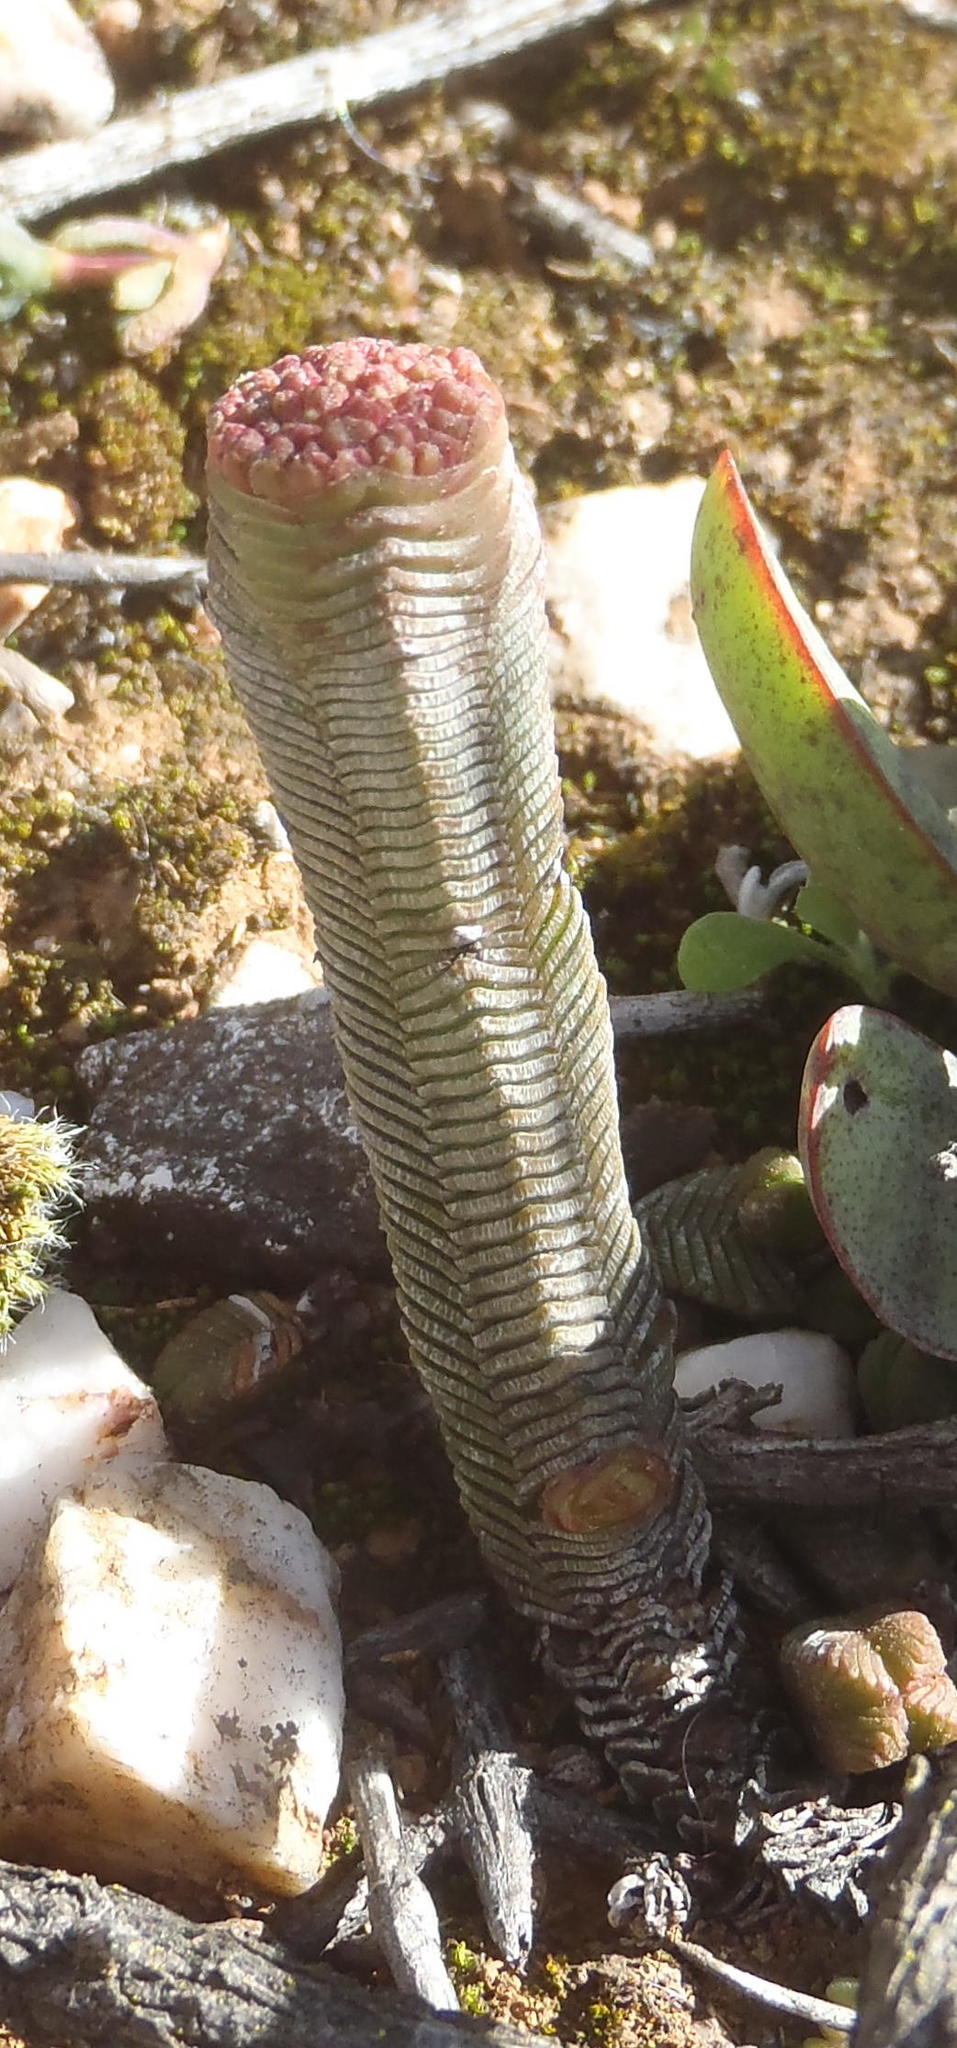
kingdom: Plantae
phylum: Tracheophyta
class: Magnoliopsida
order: Saxifragales
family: Crassulaceae
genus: Crassula
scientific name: Crassula pyramidalis
